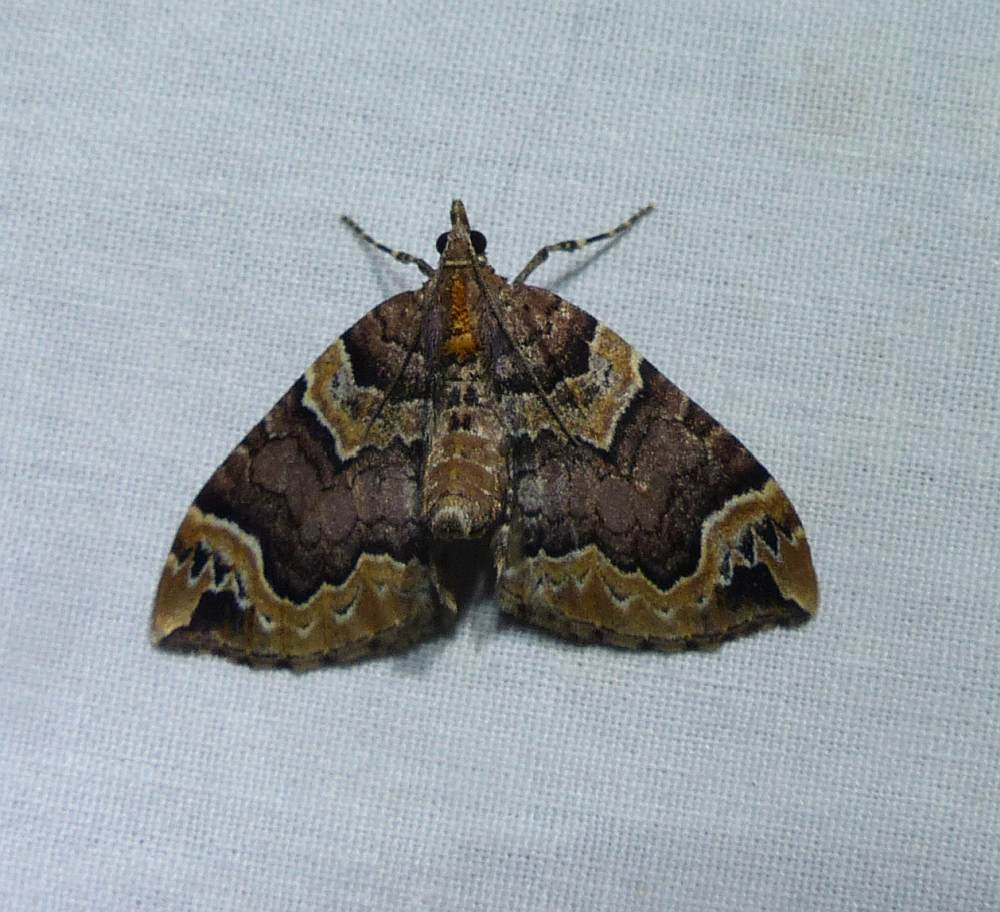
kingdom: Animalia
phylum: Arthropoda
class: Insecta
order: Lepidoptera
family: Geometridae
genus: Eulithis
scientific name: Eulithis serrataria
